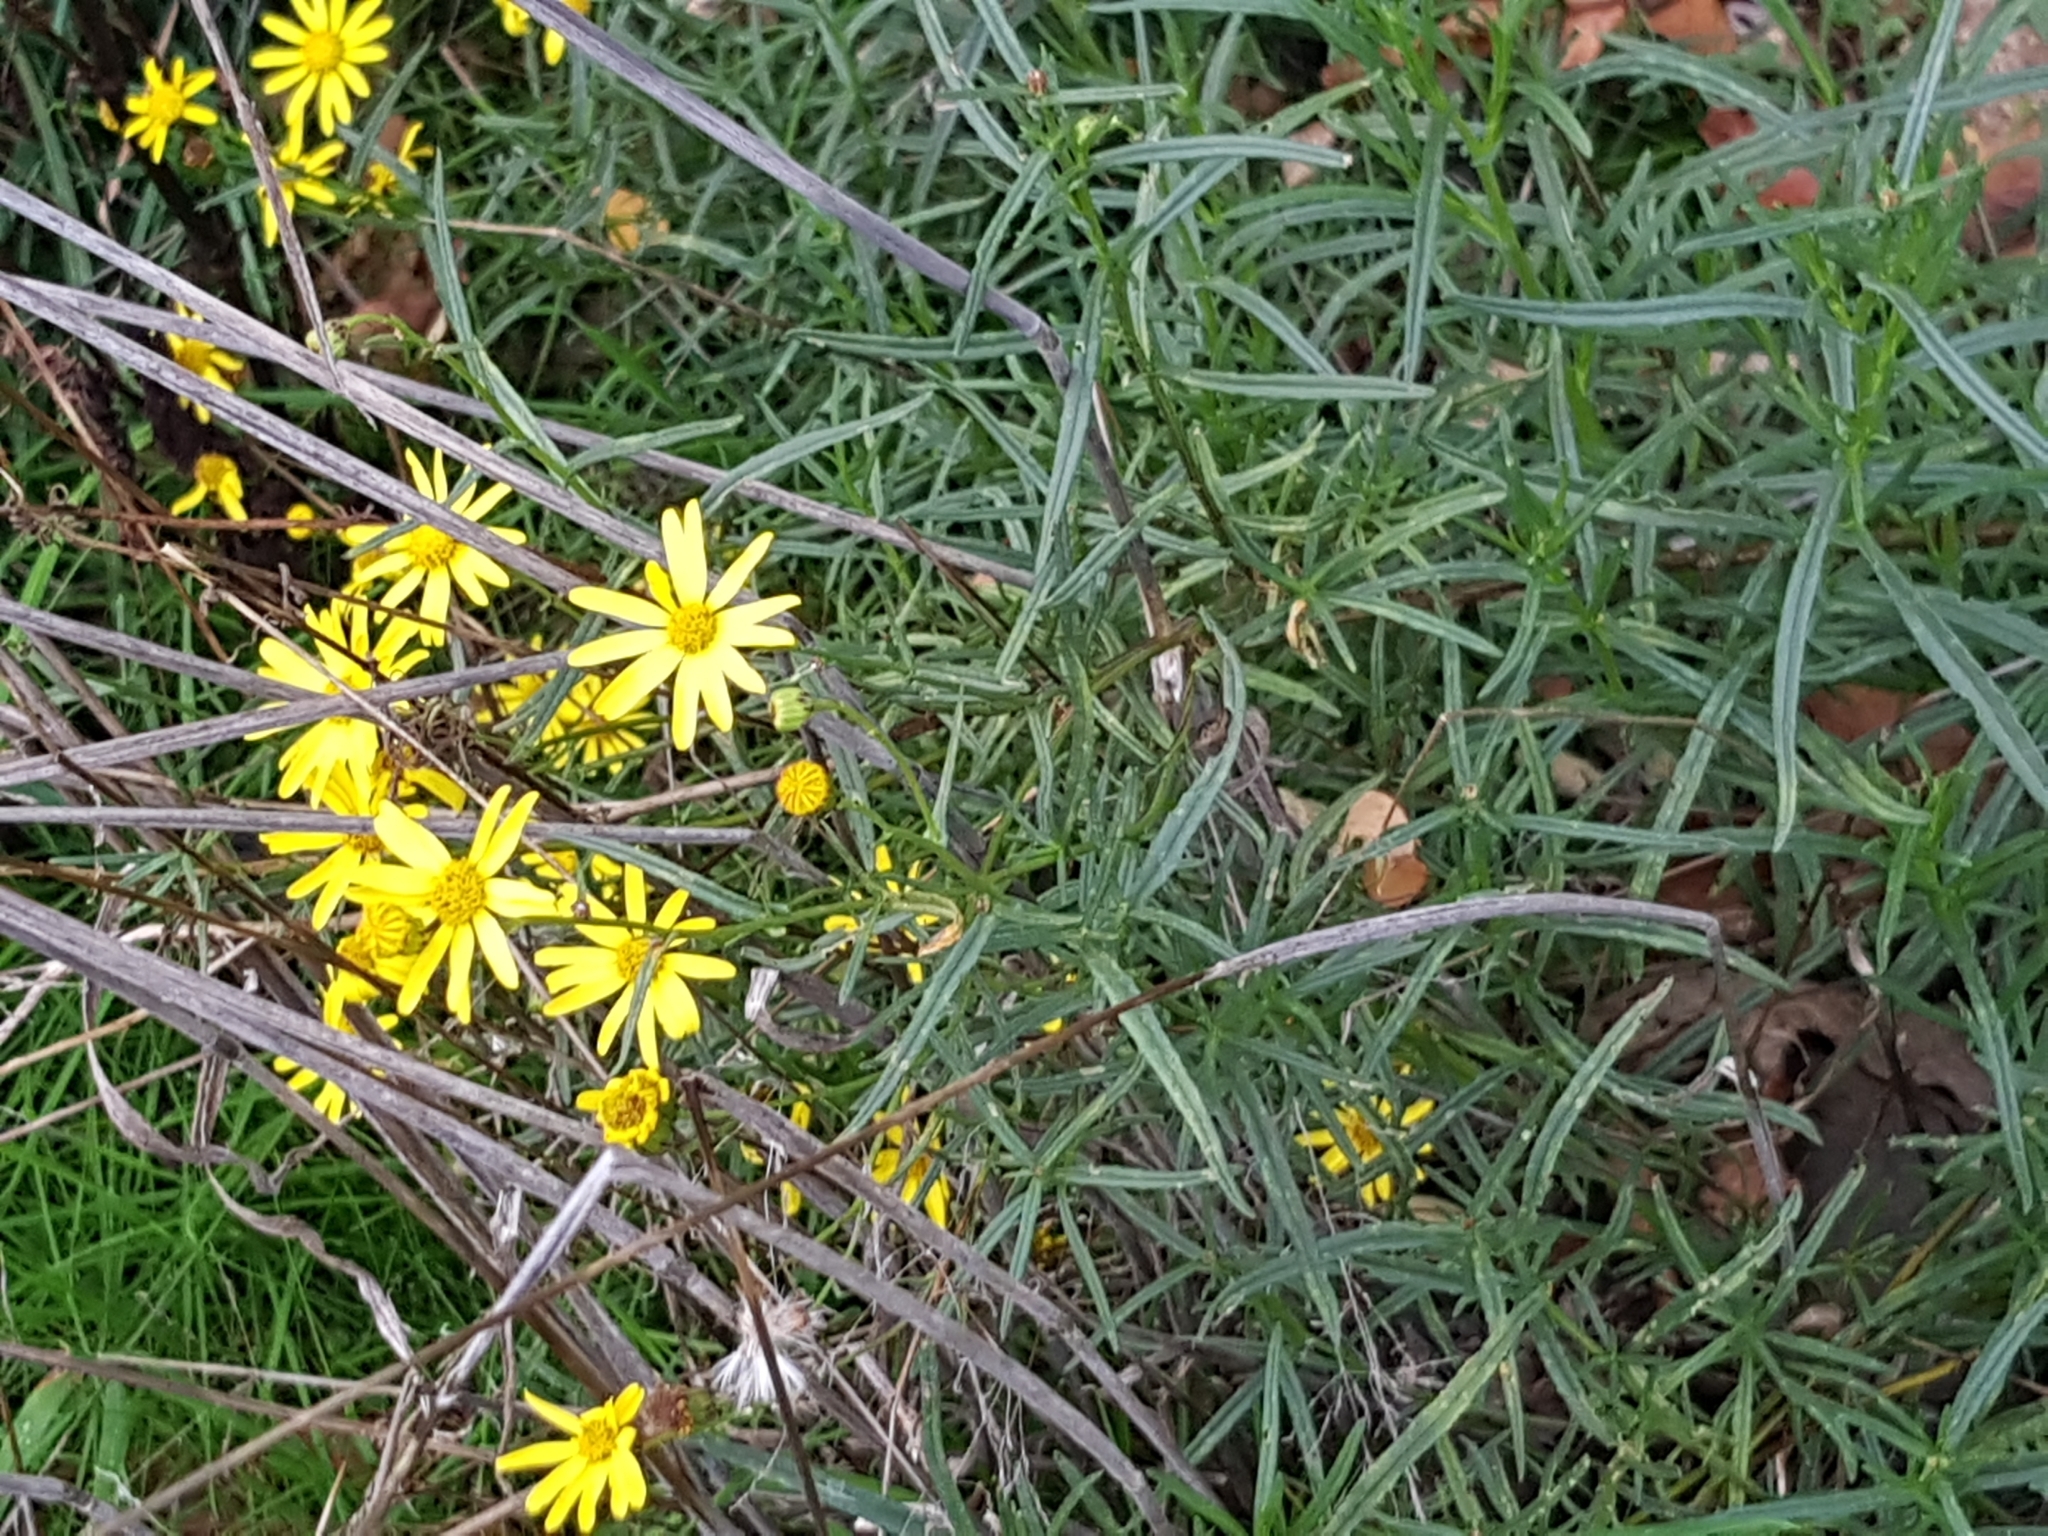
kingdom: Plantae
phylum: Tracheophyta
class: Magnoliopsida
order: Asterales
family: Asteraceae
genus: Senecio
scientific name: Senecio inaequidens
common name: Narrow-leaved ragwort
